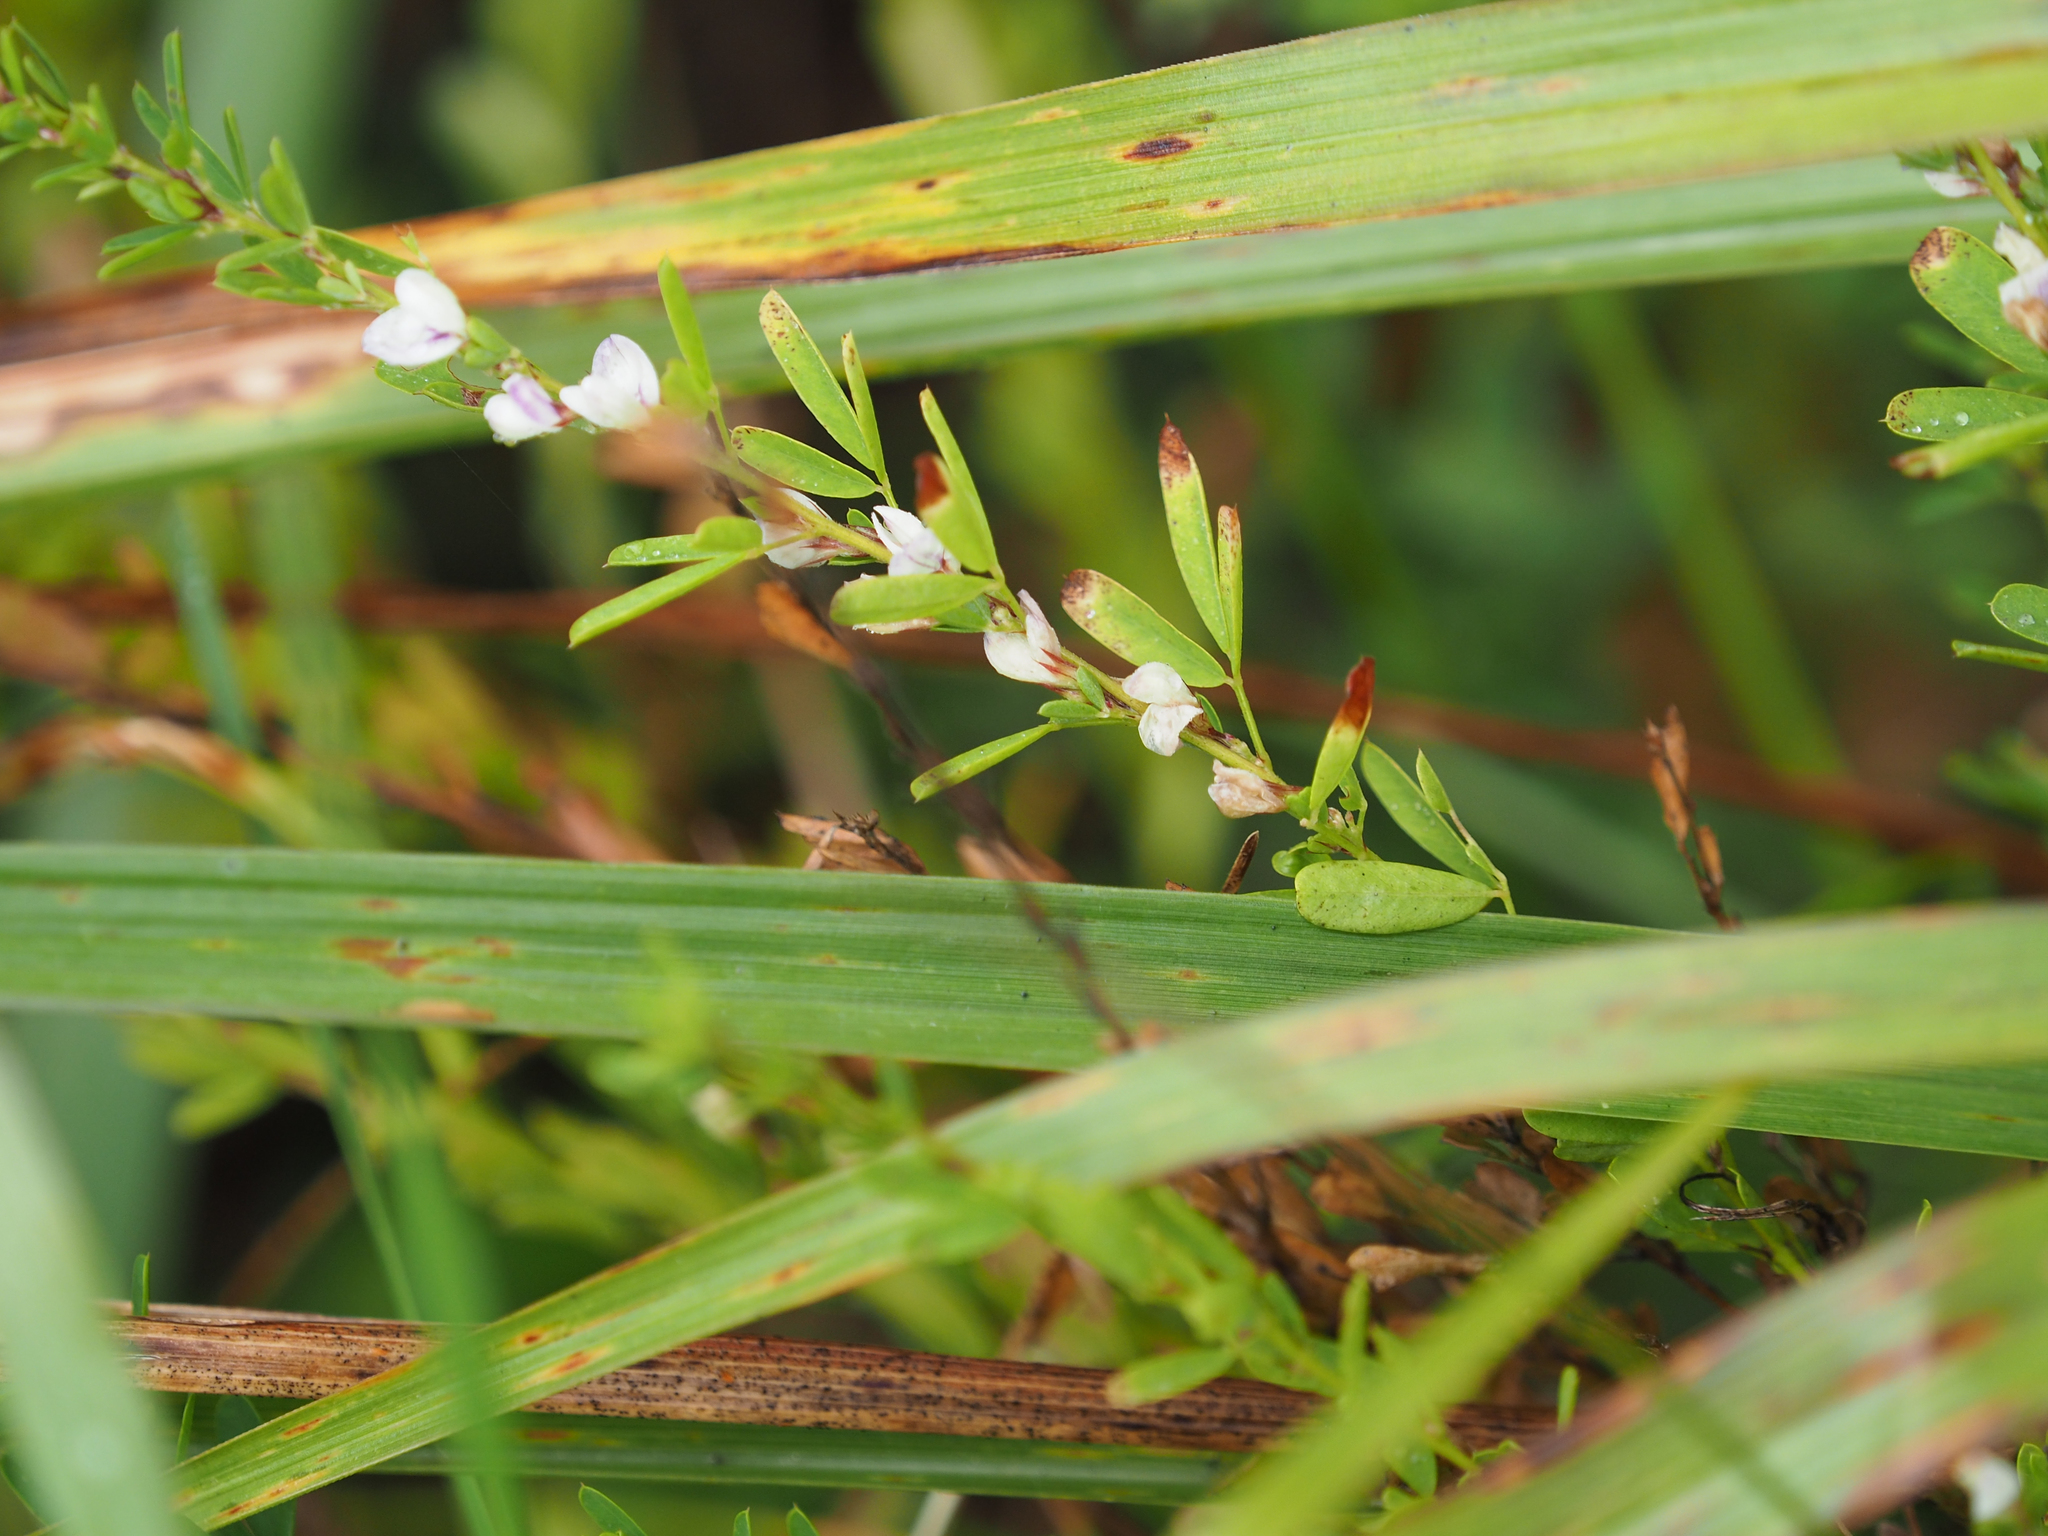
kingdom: Plantae
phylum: Tracheophyta
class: Magnoliopsida
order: Fabales
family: Fabaceae
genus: Lespedeza
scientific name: Lespedeza cuneata
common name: Chinese bush-clover
